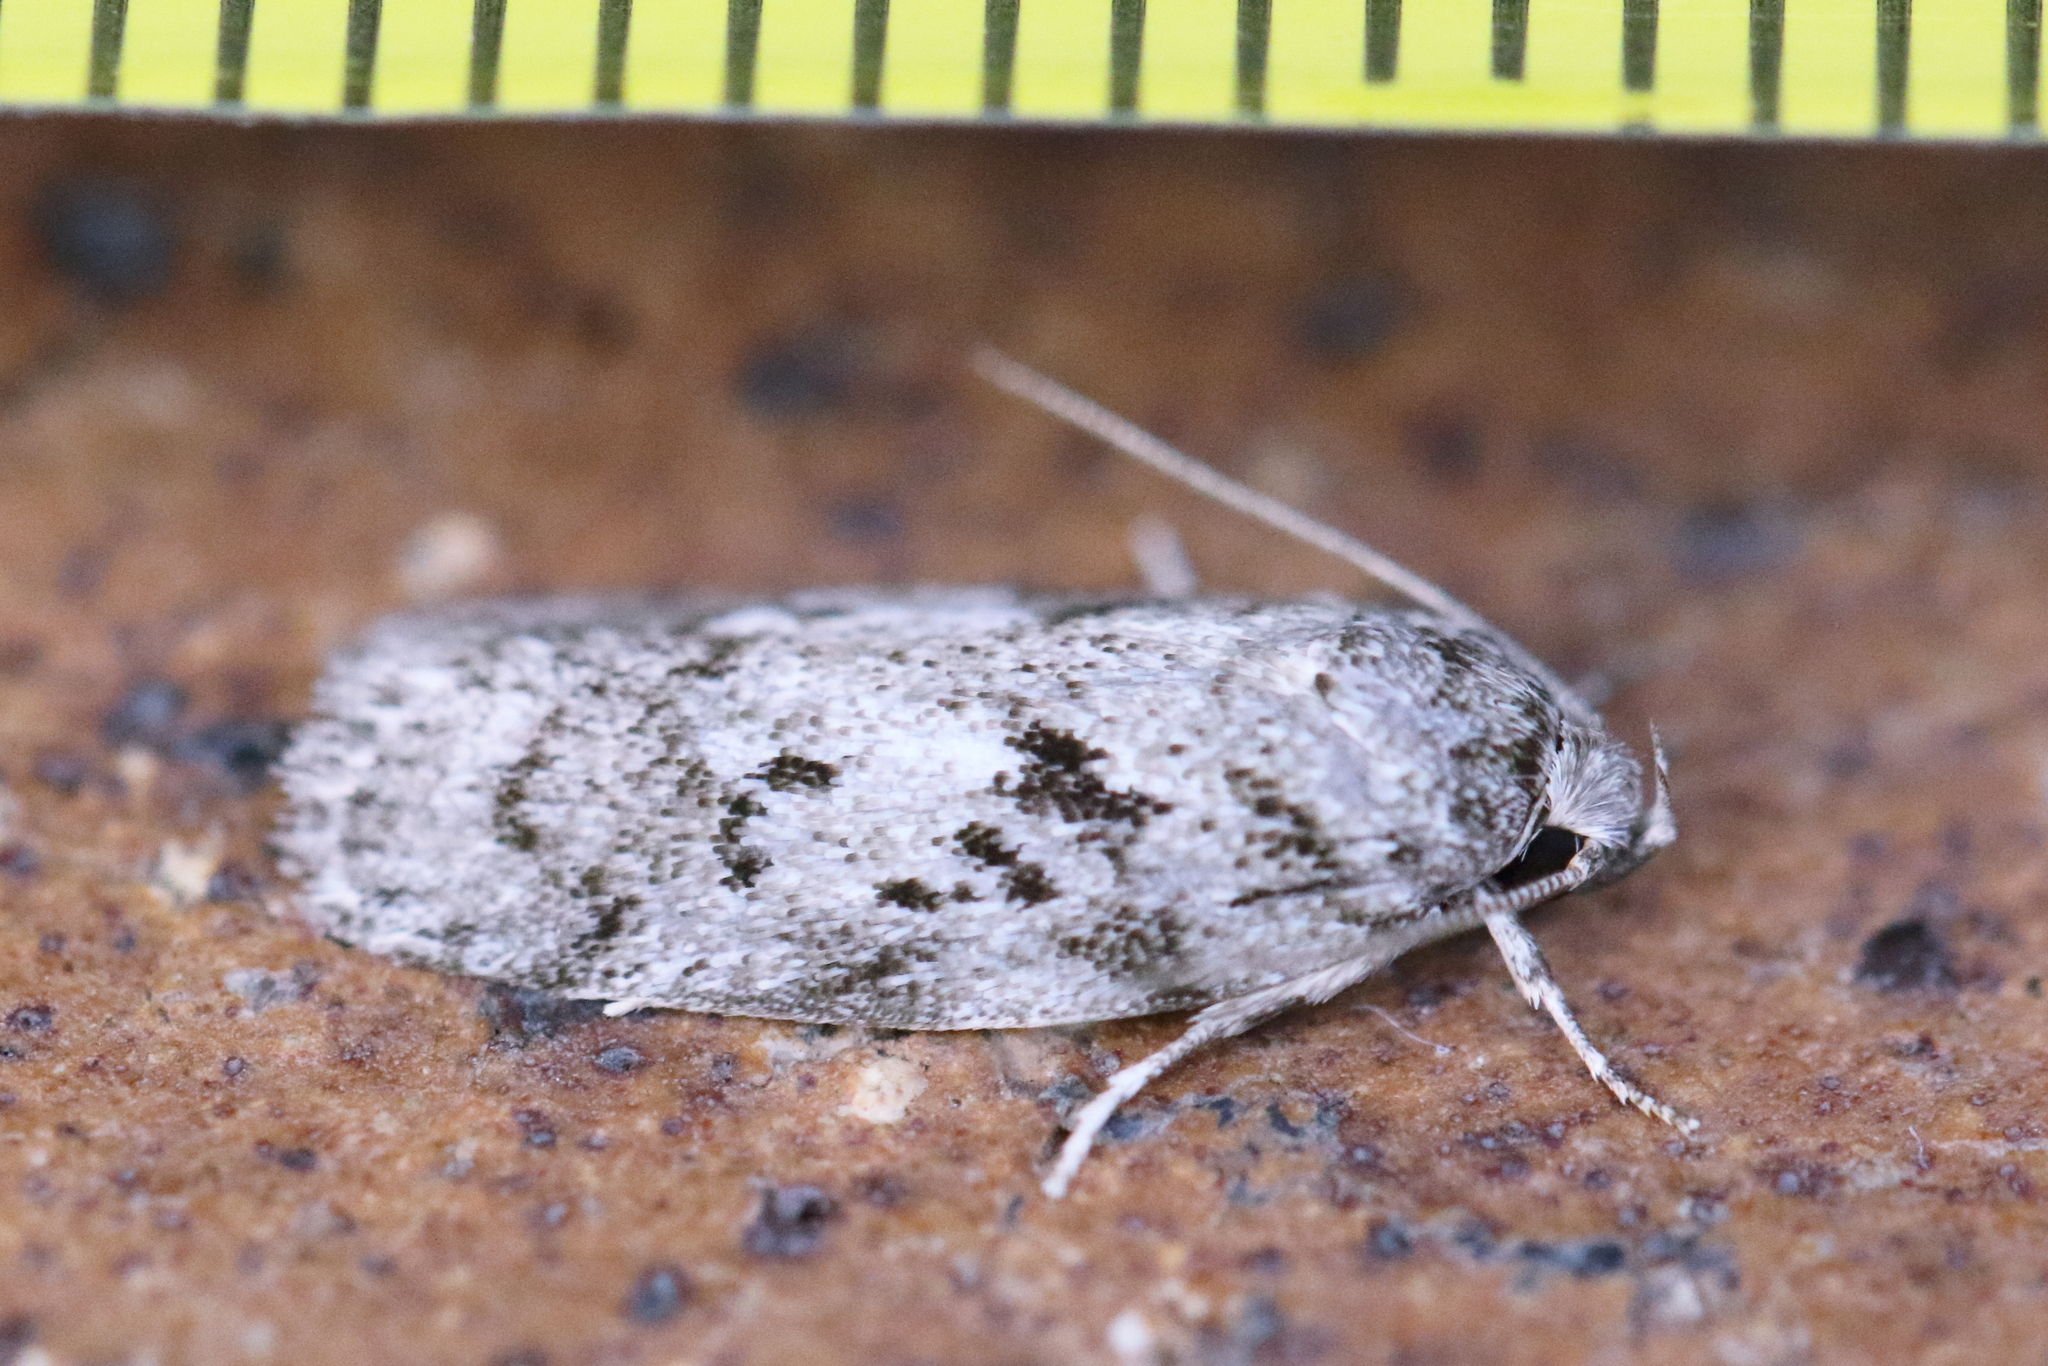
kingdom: Animalia
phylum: Arthropoda
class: Insecta
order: Lepidoptera
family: Oecophoridae
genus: Philobota
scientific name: Philobota philostaura
